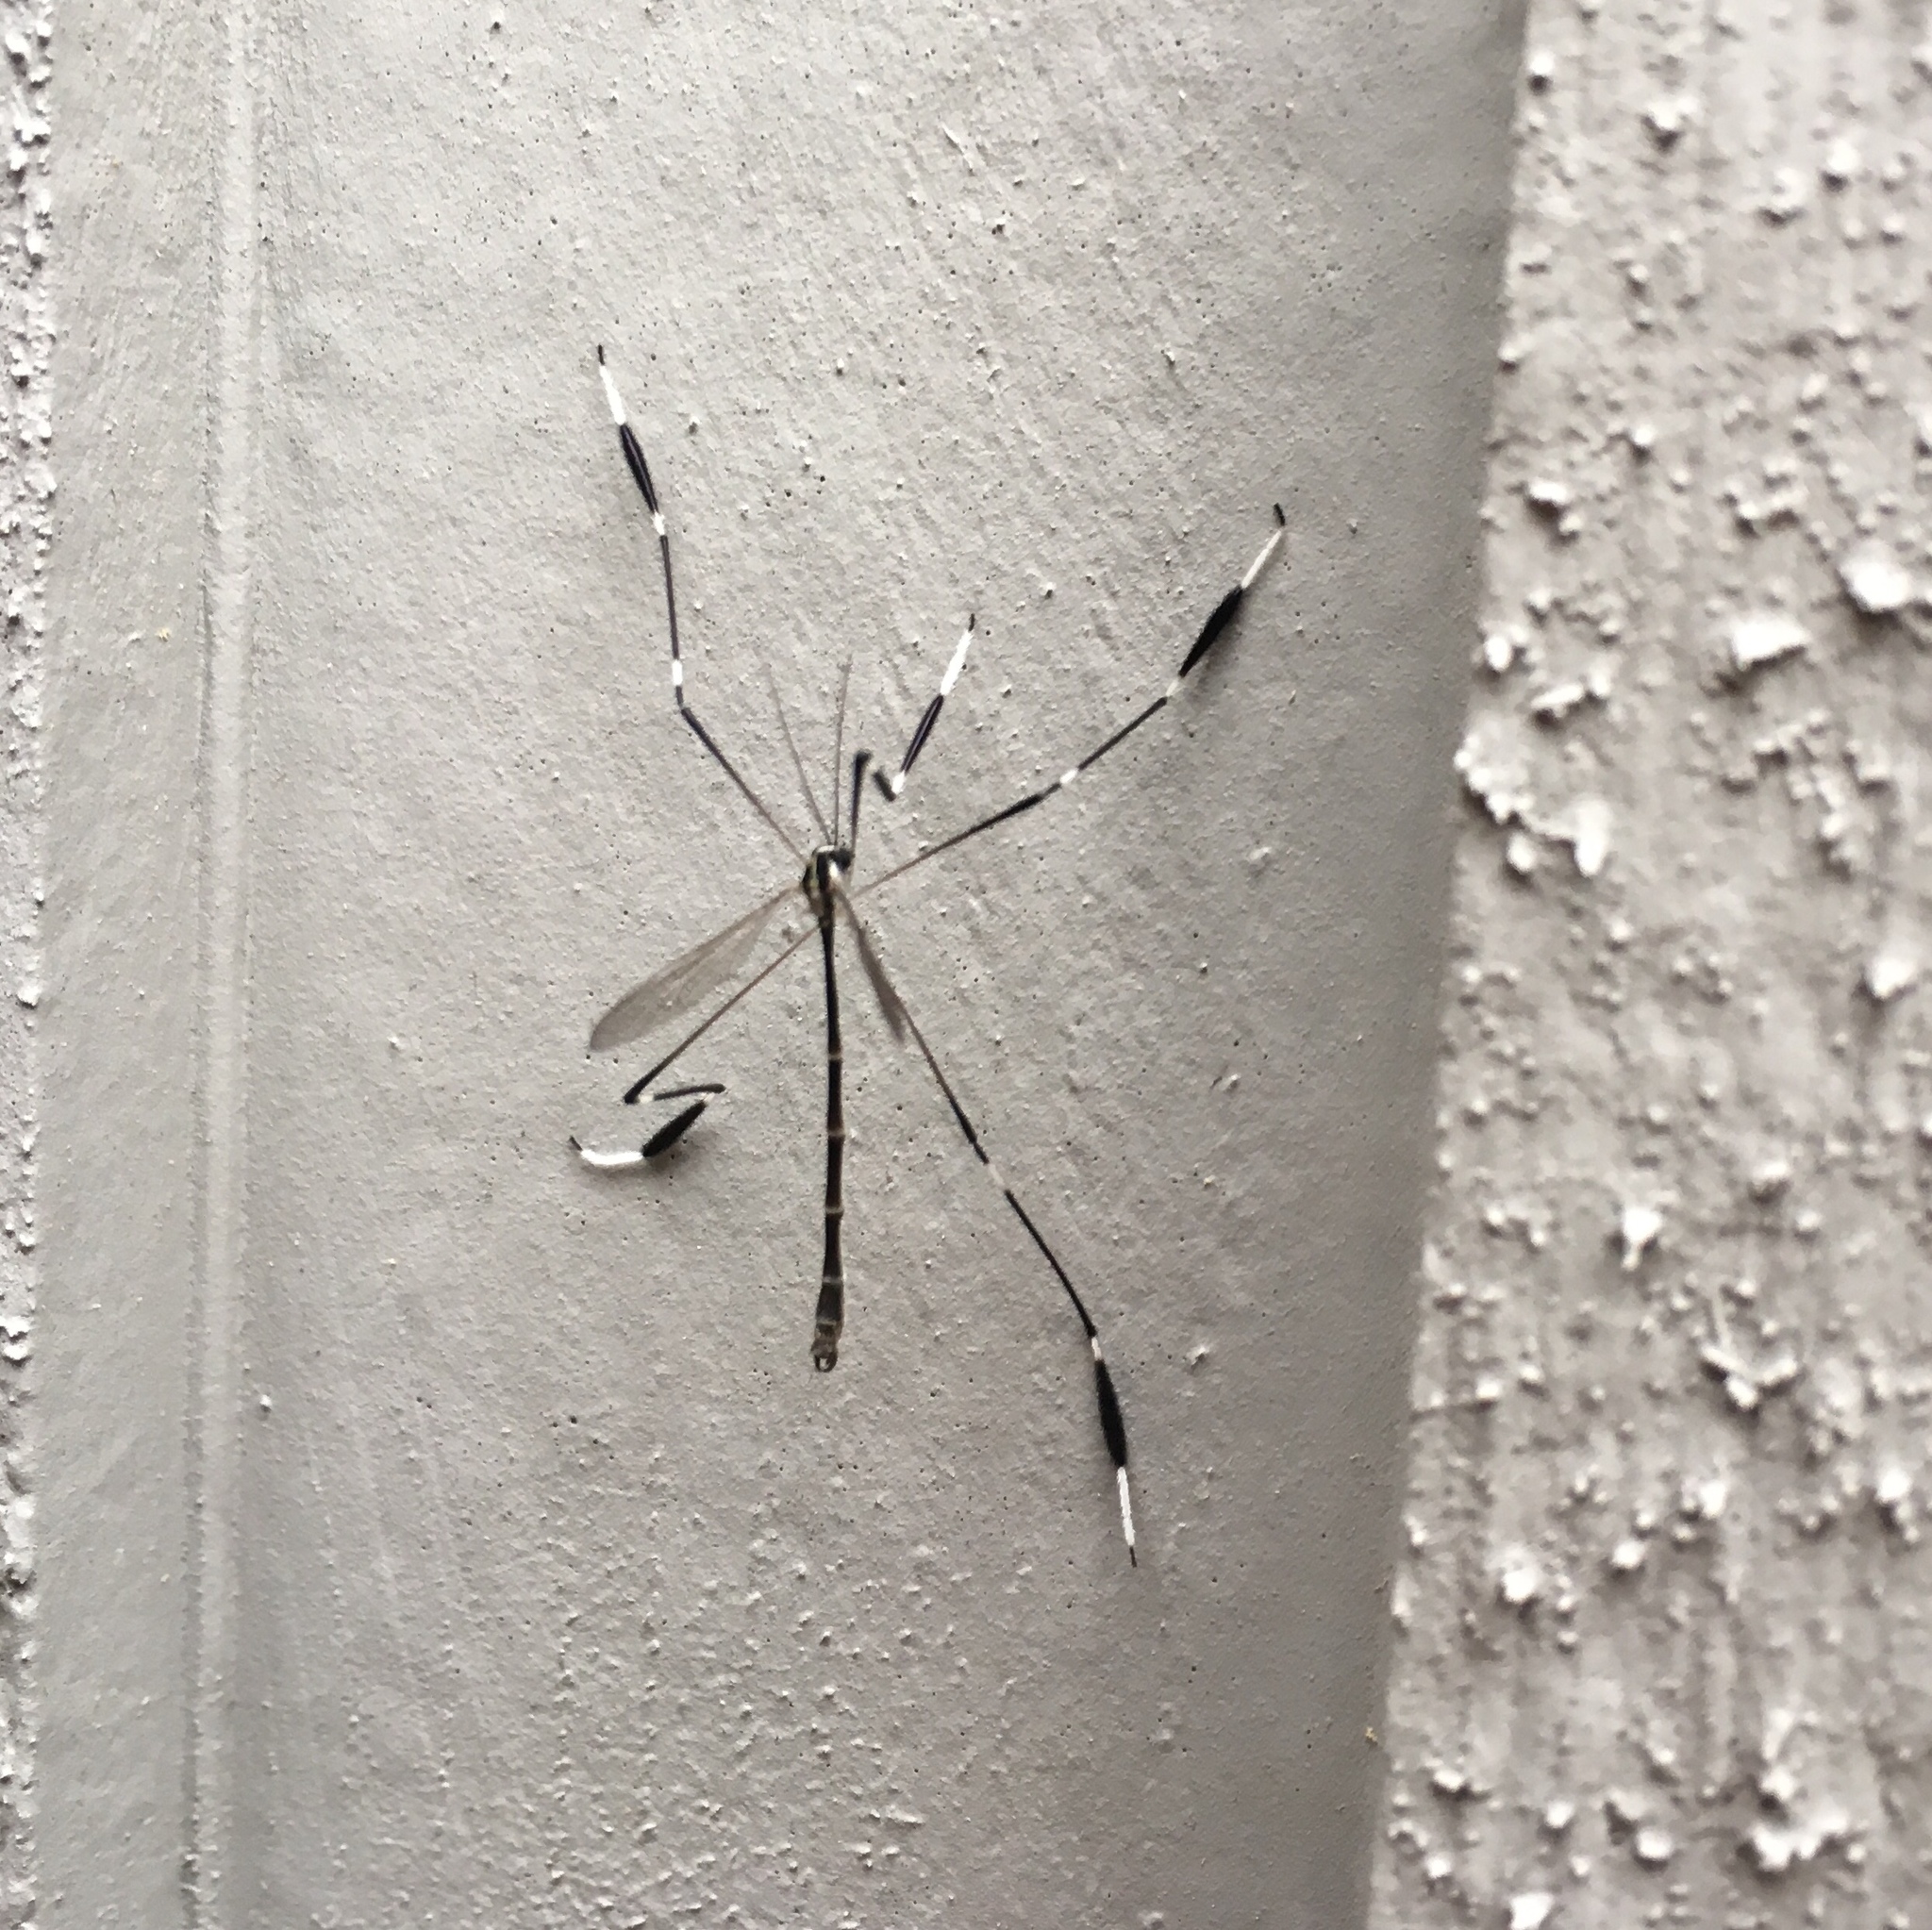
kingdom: Animalia
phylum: Arthropoda
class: Insecta
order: Diptera
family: Ptychopteridae
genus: Bittacomorpha
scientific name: Bittacomorpha clavipes
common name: Eastern phantom crane fly
